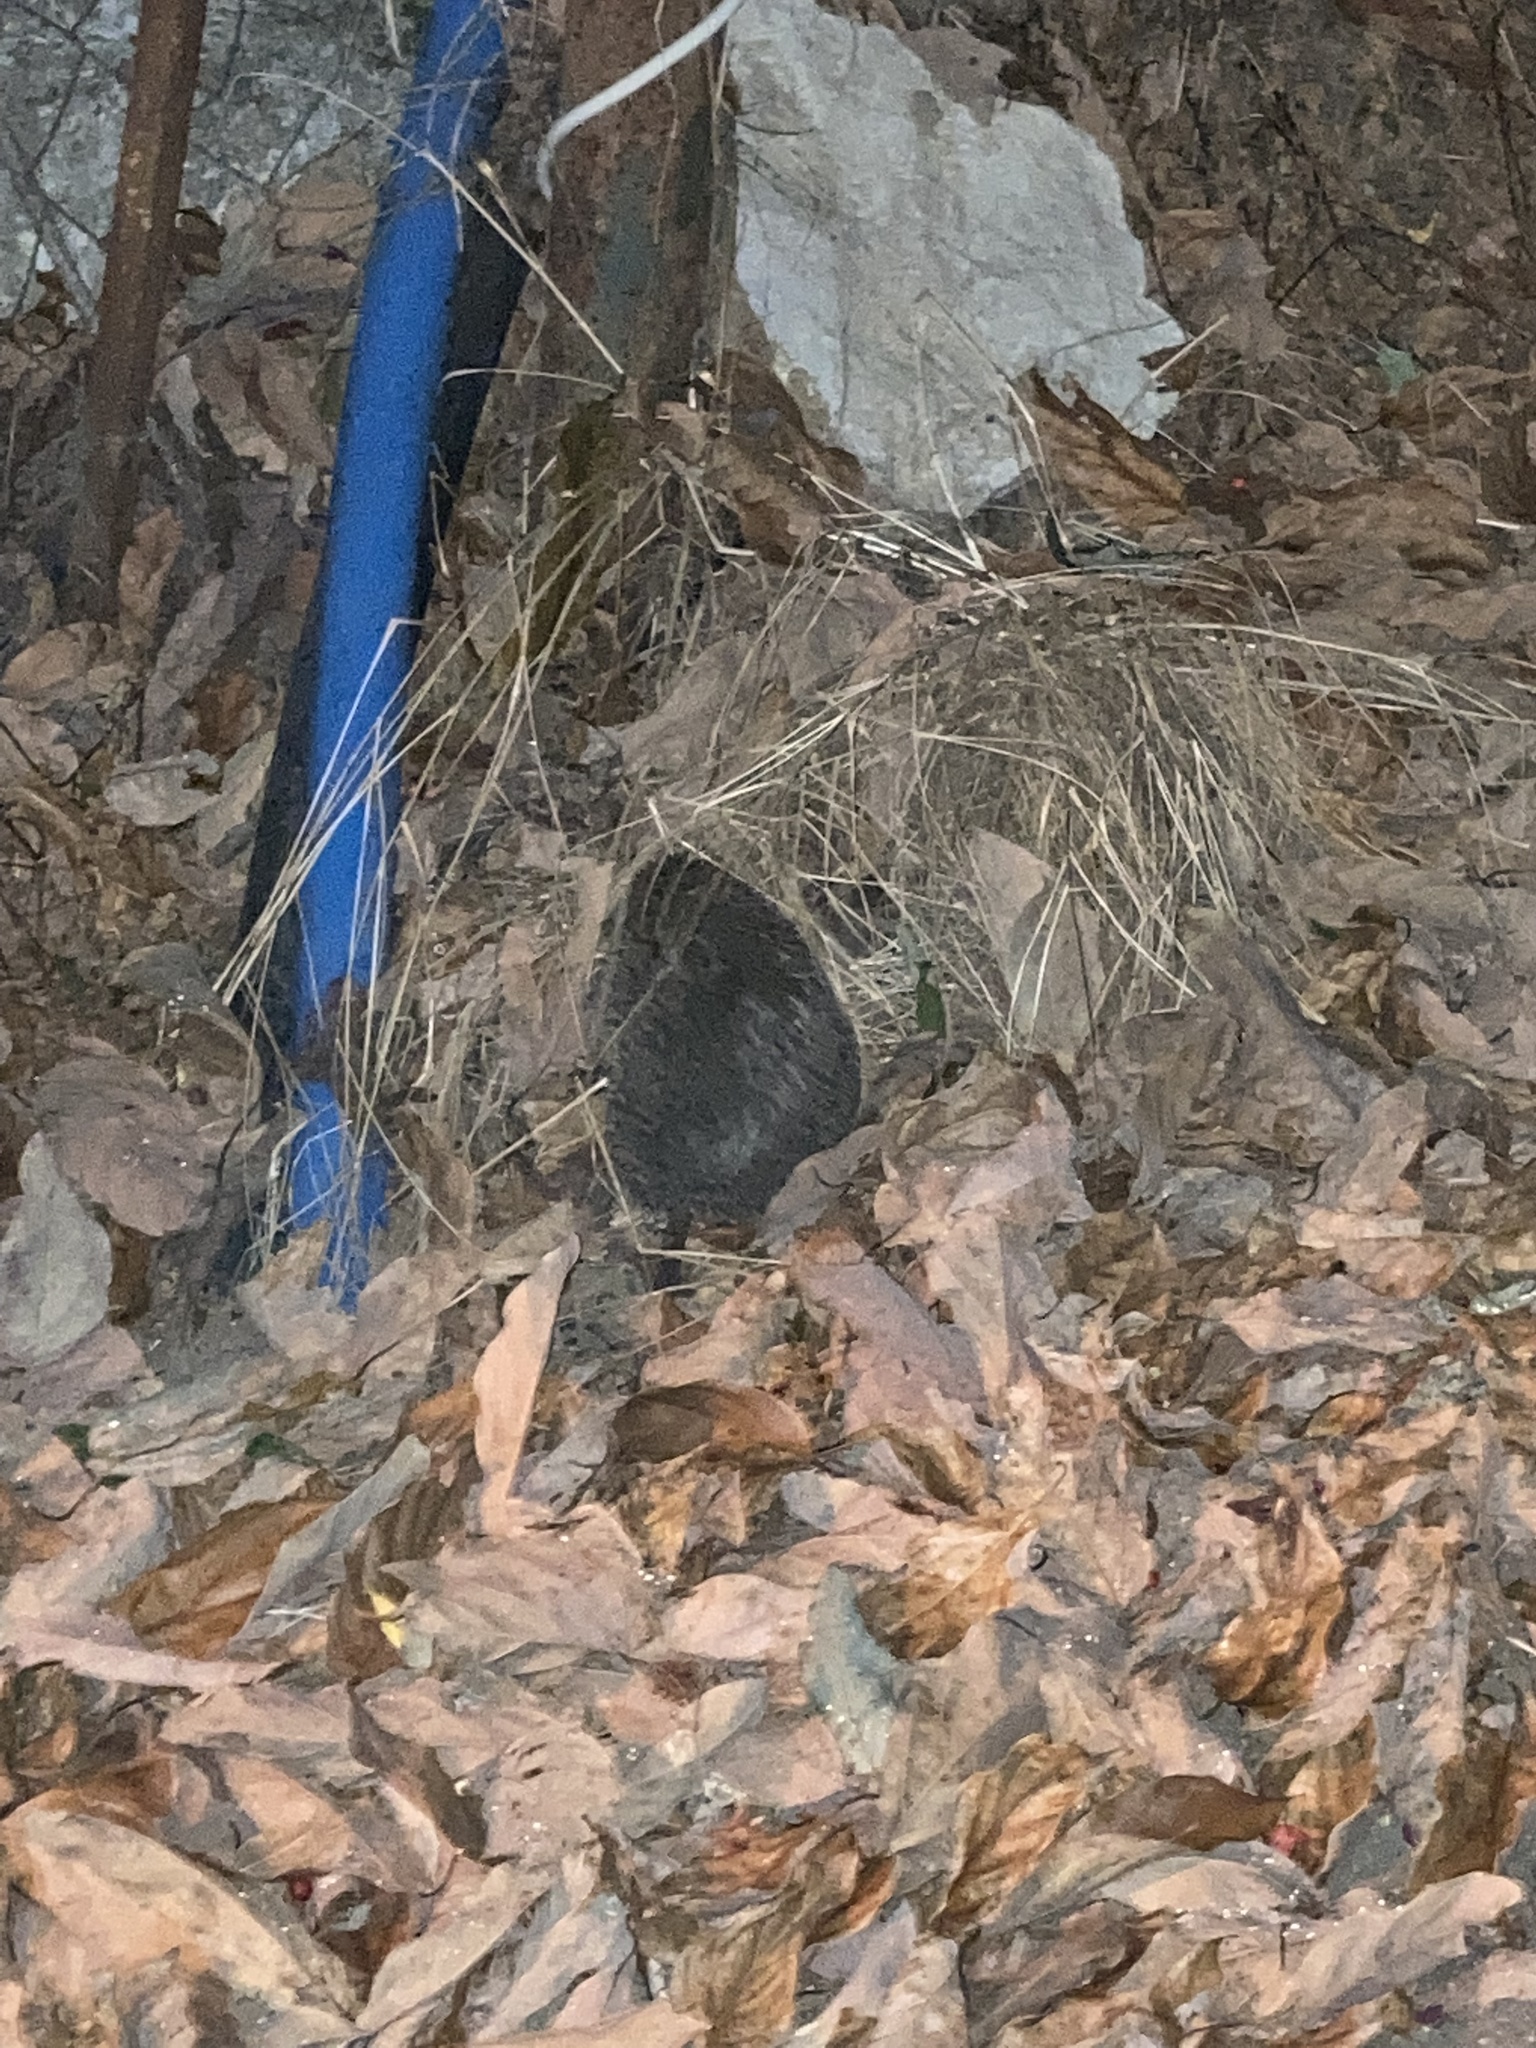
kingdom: Animalia
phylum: Chordata
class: Mammalia
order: Erinaceomorpha
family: Erinaceidae
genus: Erinaceus
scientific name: Erinaceus concolor
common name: Southern white-breasted hedgehog
